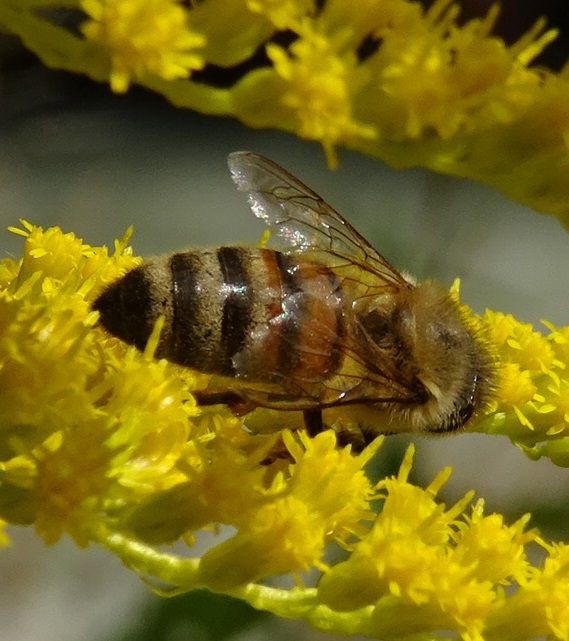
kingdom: Animalia
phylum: Arthropoda
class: Insecta
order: Hymenoptera
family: Apidae
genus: Apis
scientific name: Apis mellifera
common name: Honey bee
